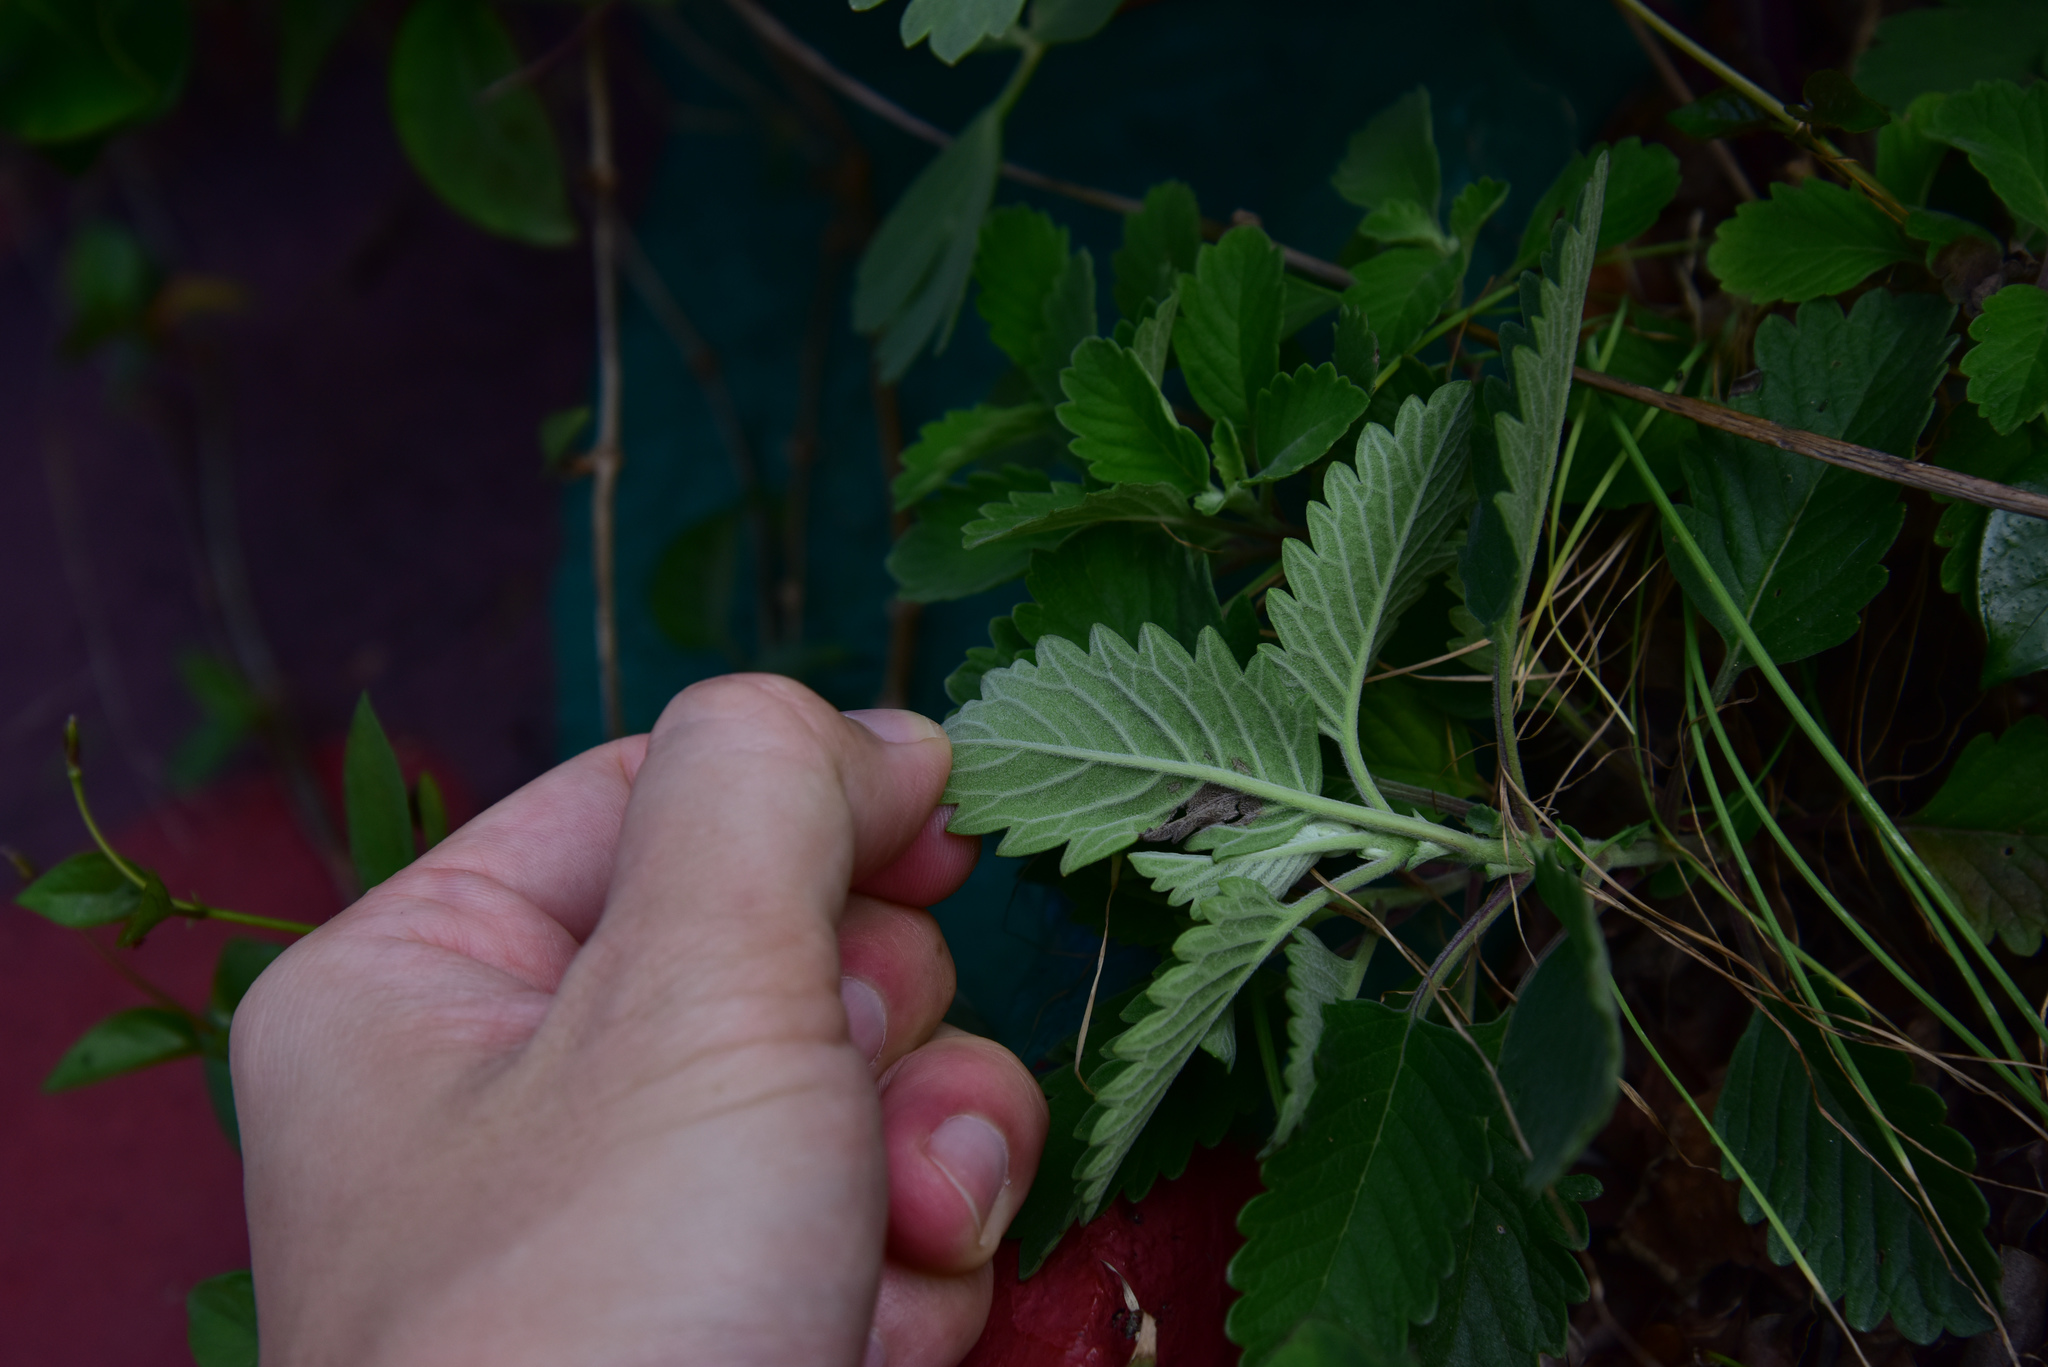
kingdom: Plantae
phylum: Tracheophyta
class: Magnoliopsida
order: Lamiales
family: Lamiaceae
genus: Caryopteris
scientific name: Caryopteris incana
